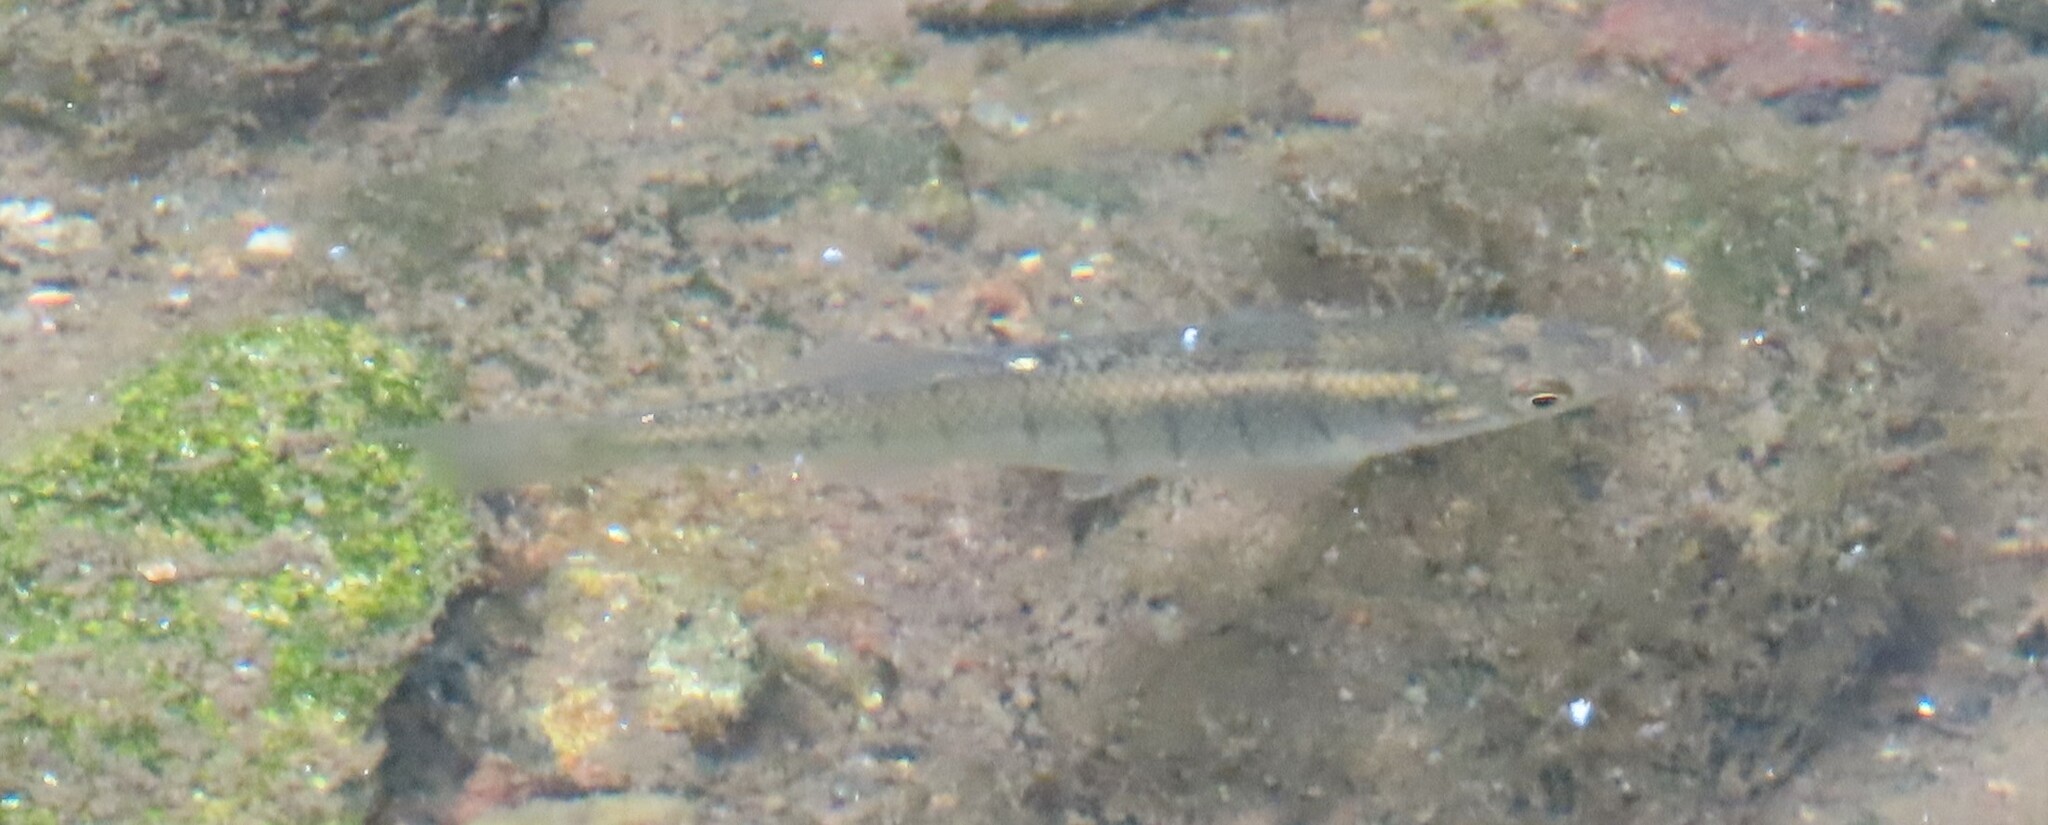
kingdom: Animalia
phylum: Chordata
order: Cyprinodontiformes
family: Fundulidae
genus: Fundulus
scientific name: Fundulus diaphanus
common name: Banded killifish
